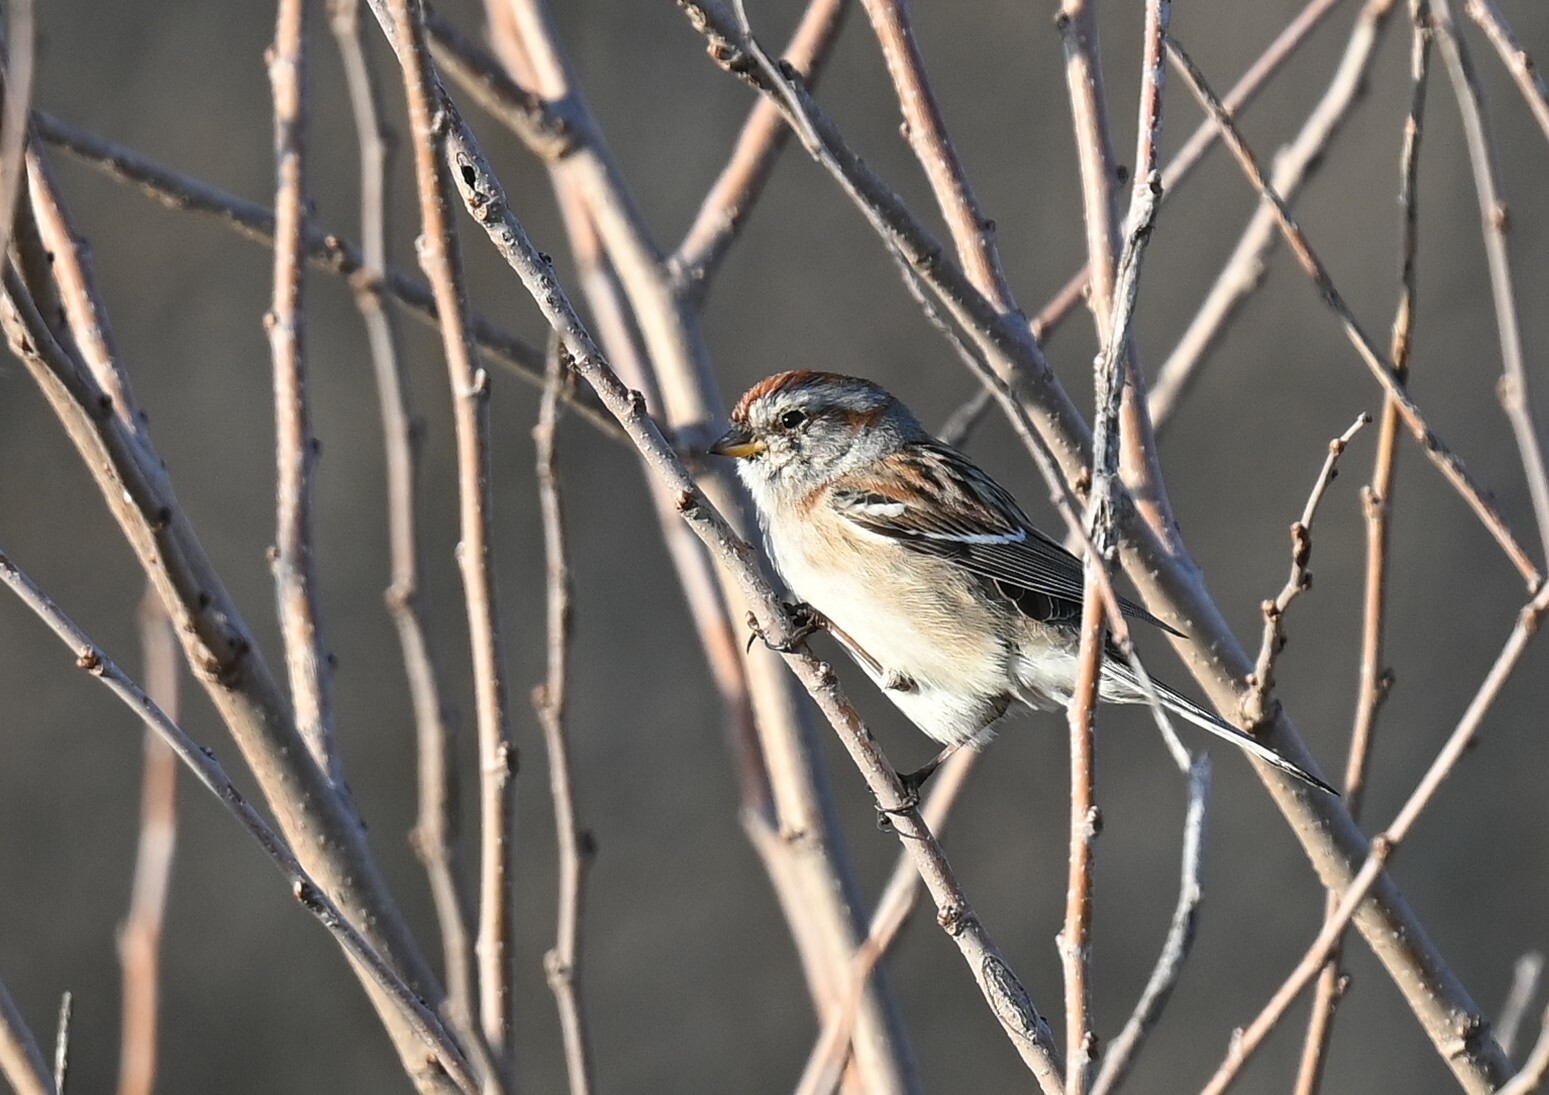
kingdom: Animalia
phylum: Chordata
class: Aves
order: Passeriformes
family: Passerellidae
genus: Spizelloides
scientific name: Spizelloides arborea
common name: American tree sparrow
